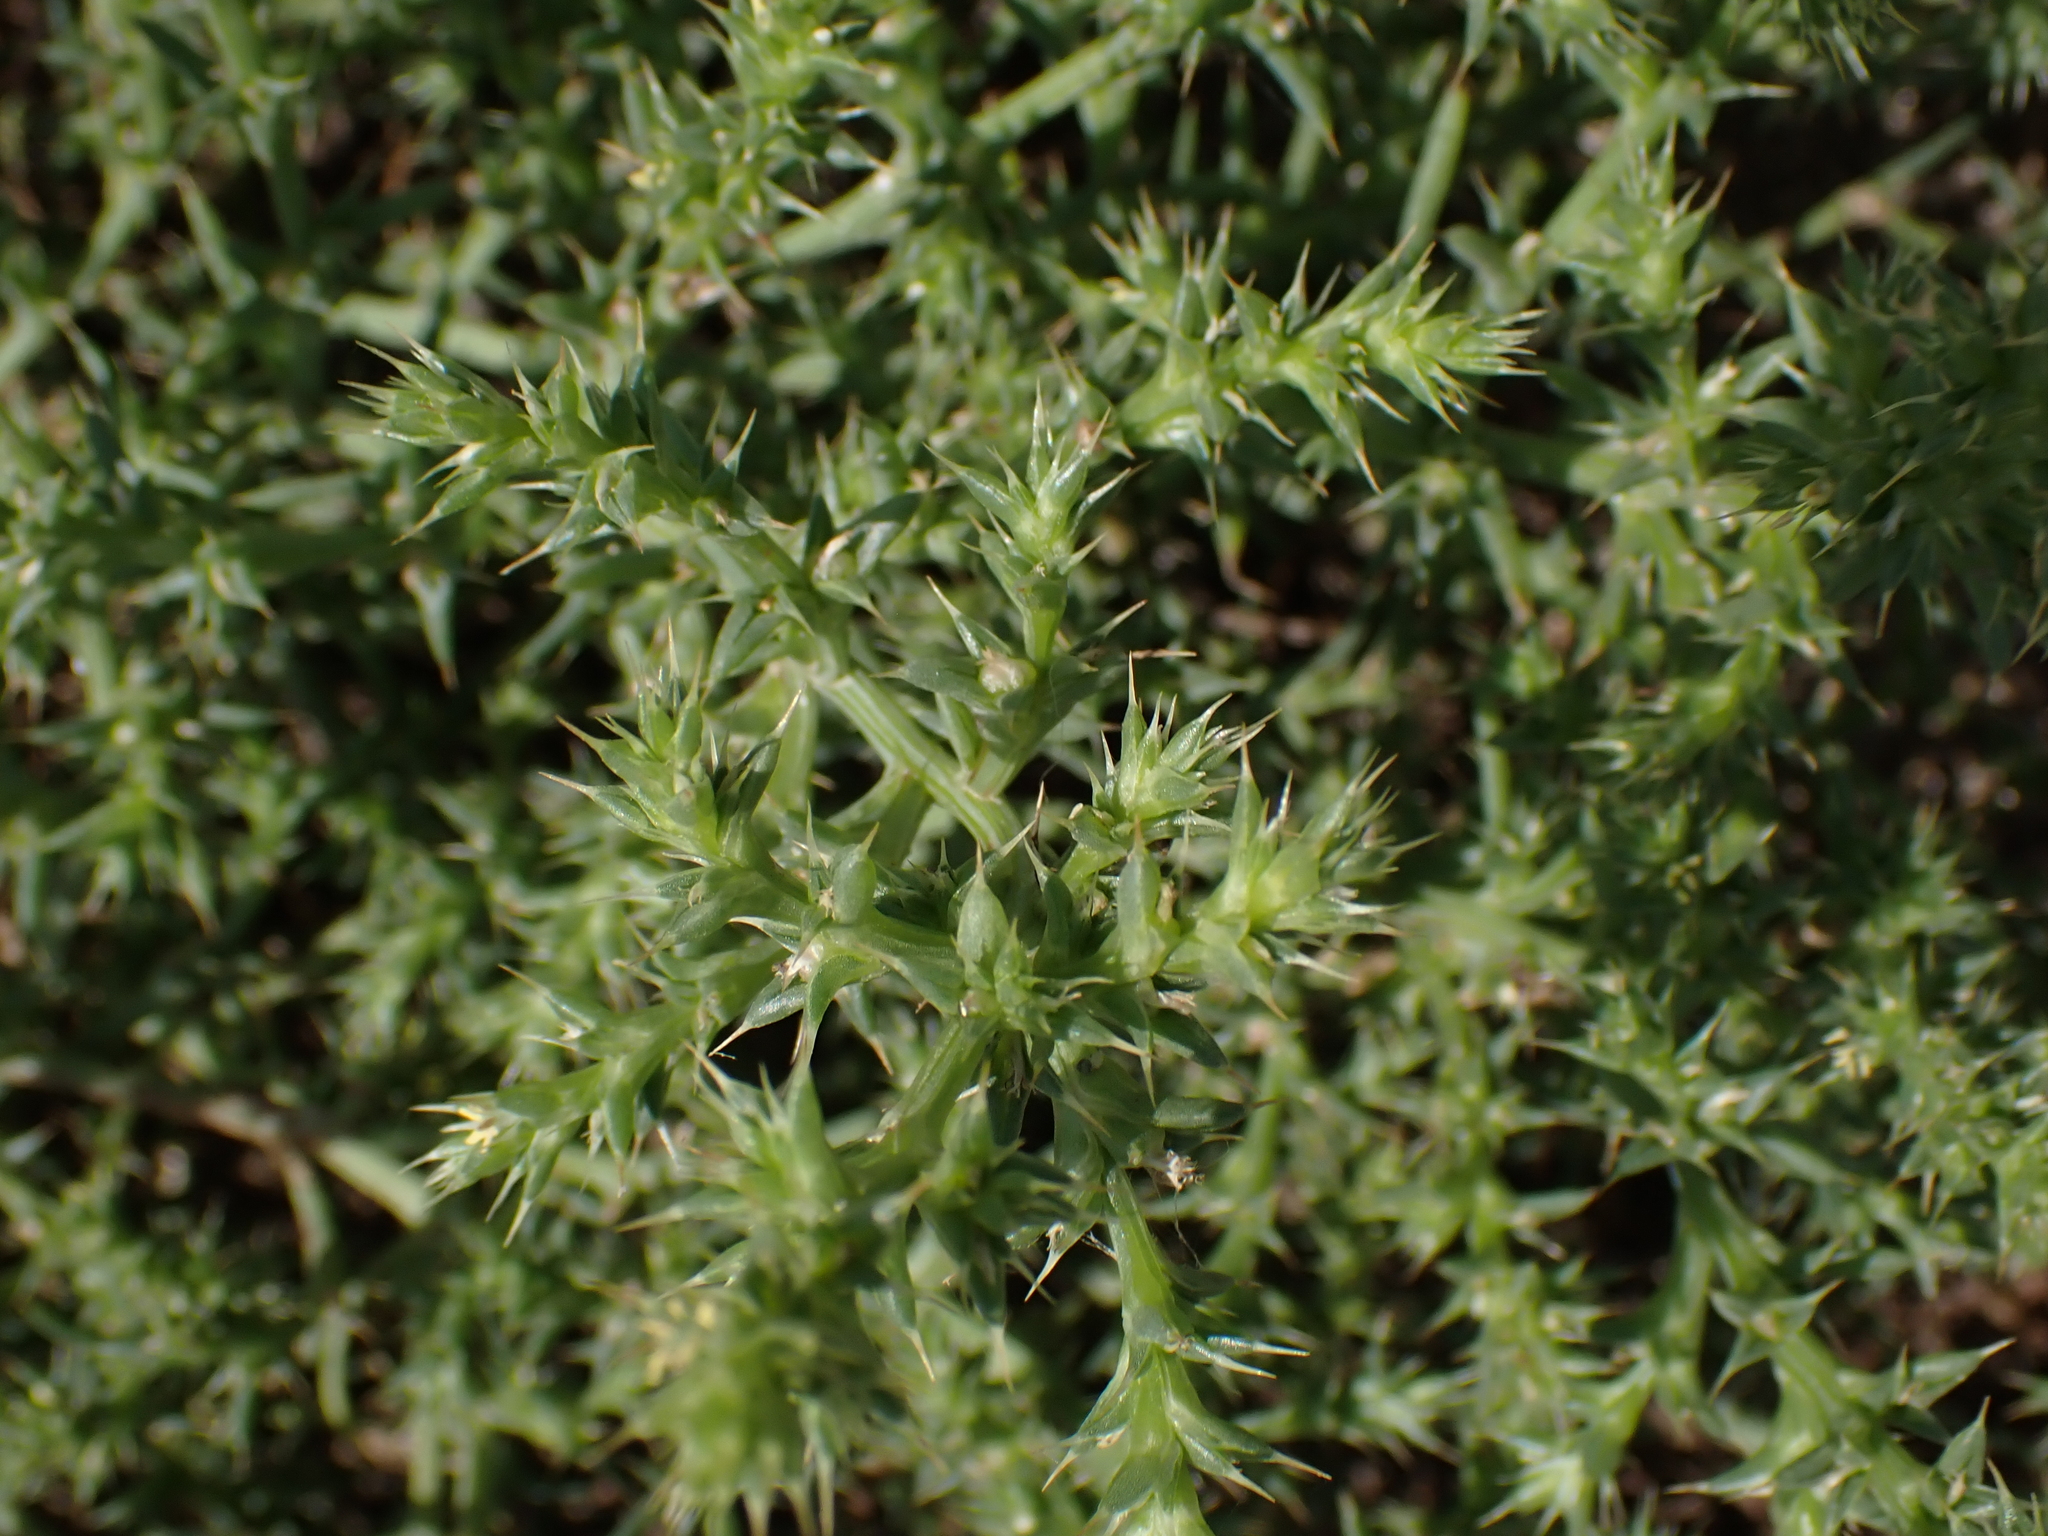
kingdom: Plantae
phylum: Tracheophyta
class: Magnoliopsida
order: Caryophyllales
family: Amaranthaceae
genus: Salsola
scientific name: Salsola kali
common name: Saltwort
